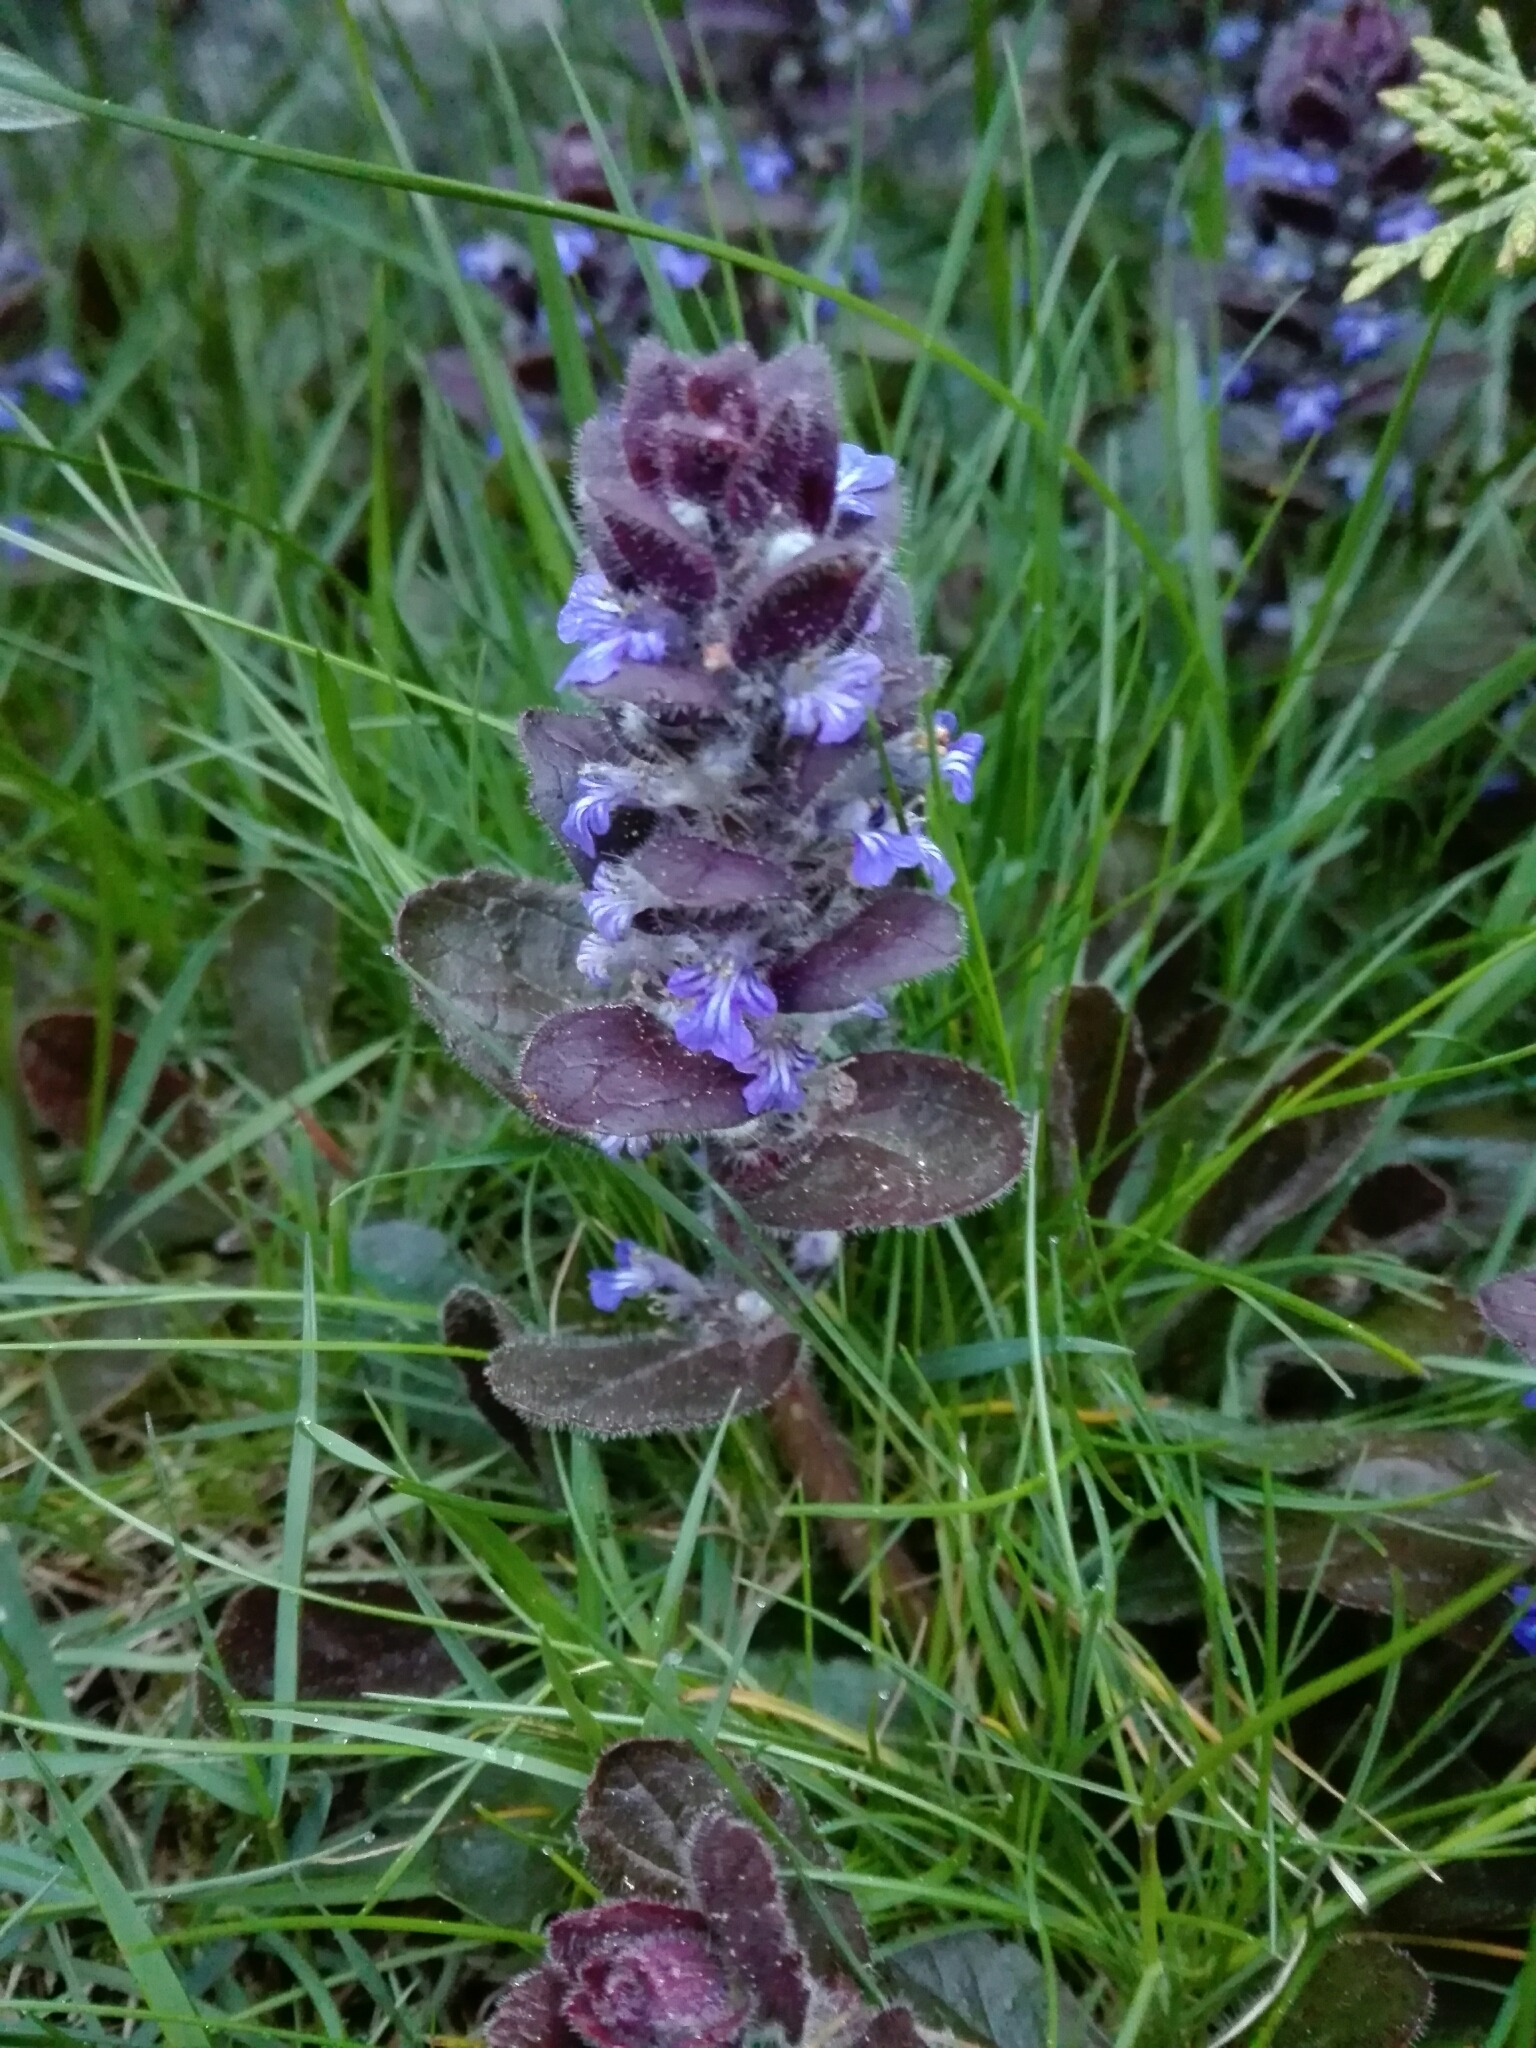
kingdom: Plantae
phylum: Tracheophyta
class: Magnoliopsida
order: Lamiales
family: Lamiaceae
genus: Ajuga
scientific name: Ajuga reptans
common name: Bugle
